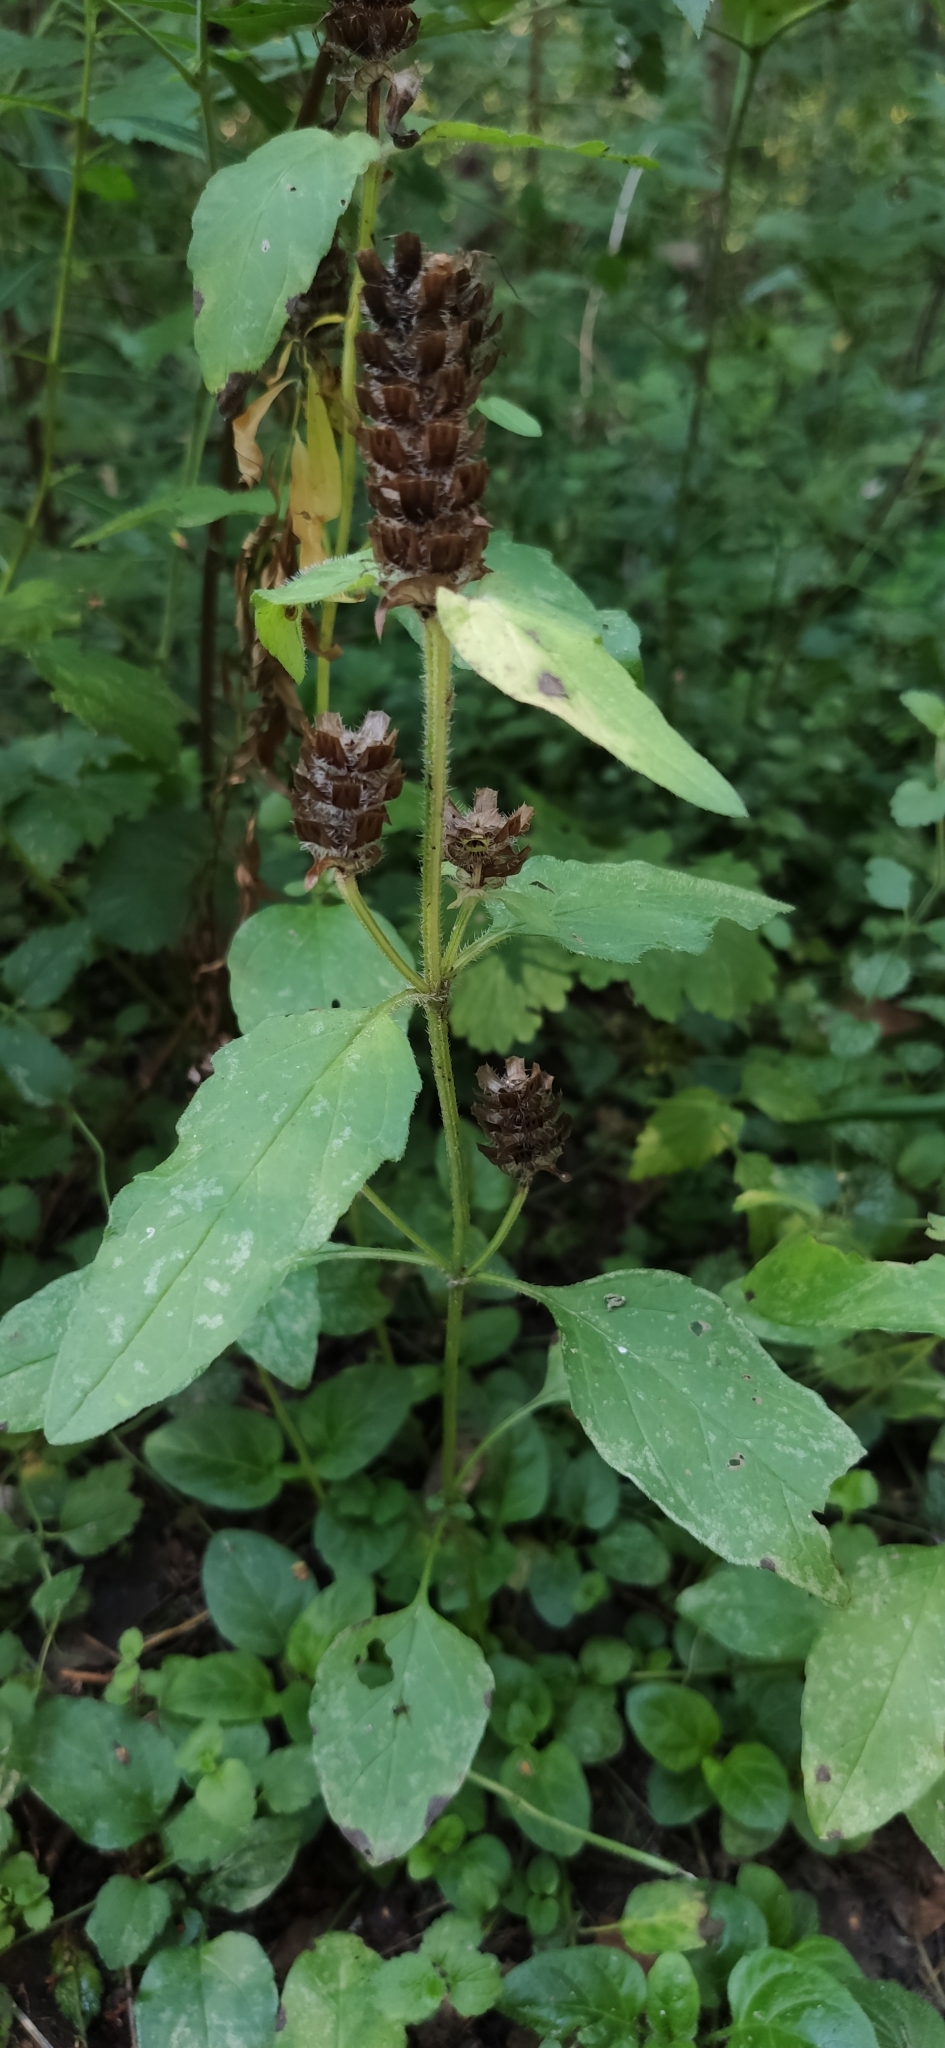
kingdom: Plantae
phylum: Tracheophyta
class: Magnoliopsida
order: Lamiales
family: Lamiaceae
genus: Prunella
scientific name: Prunella vulgaris
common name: Heal-all
